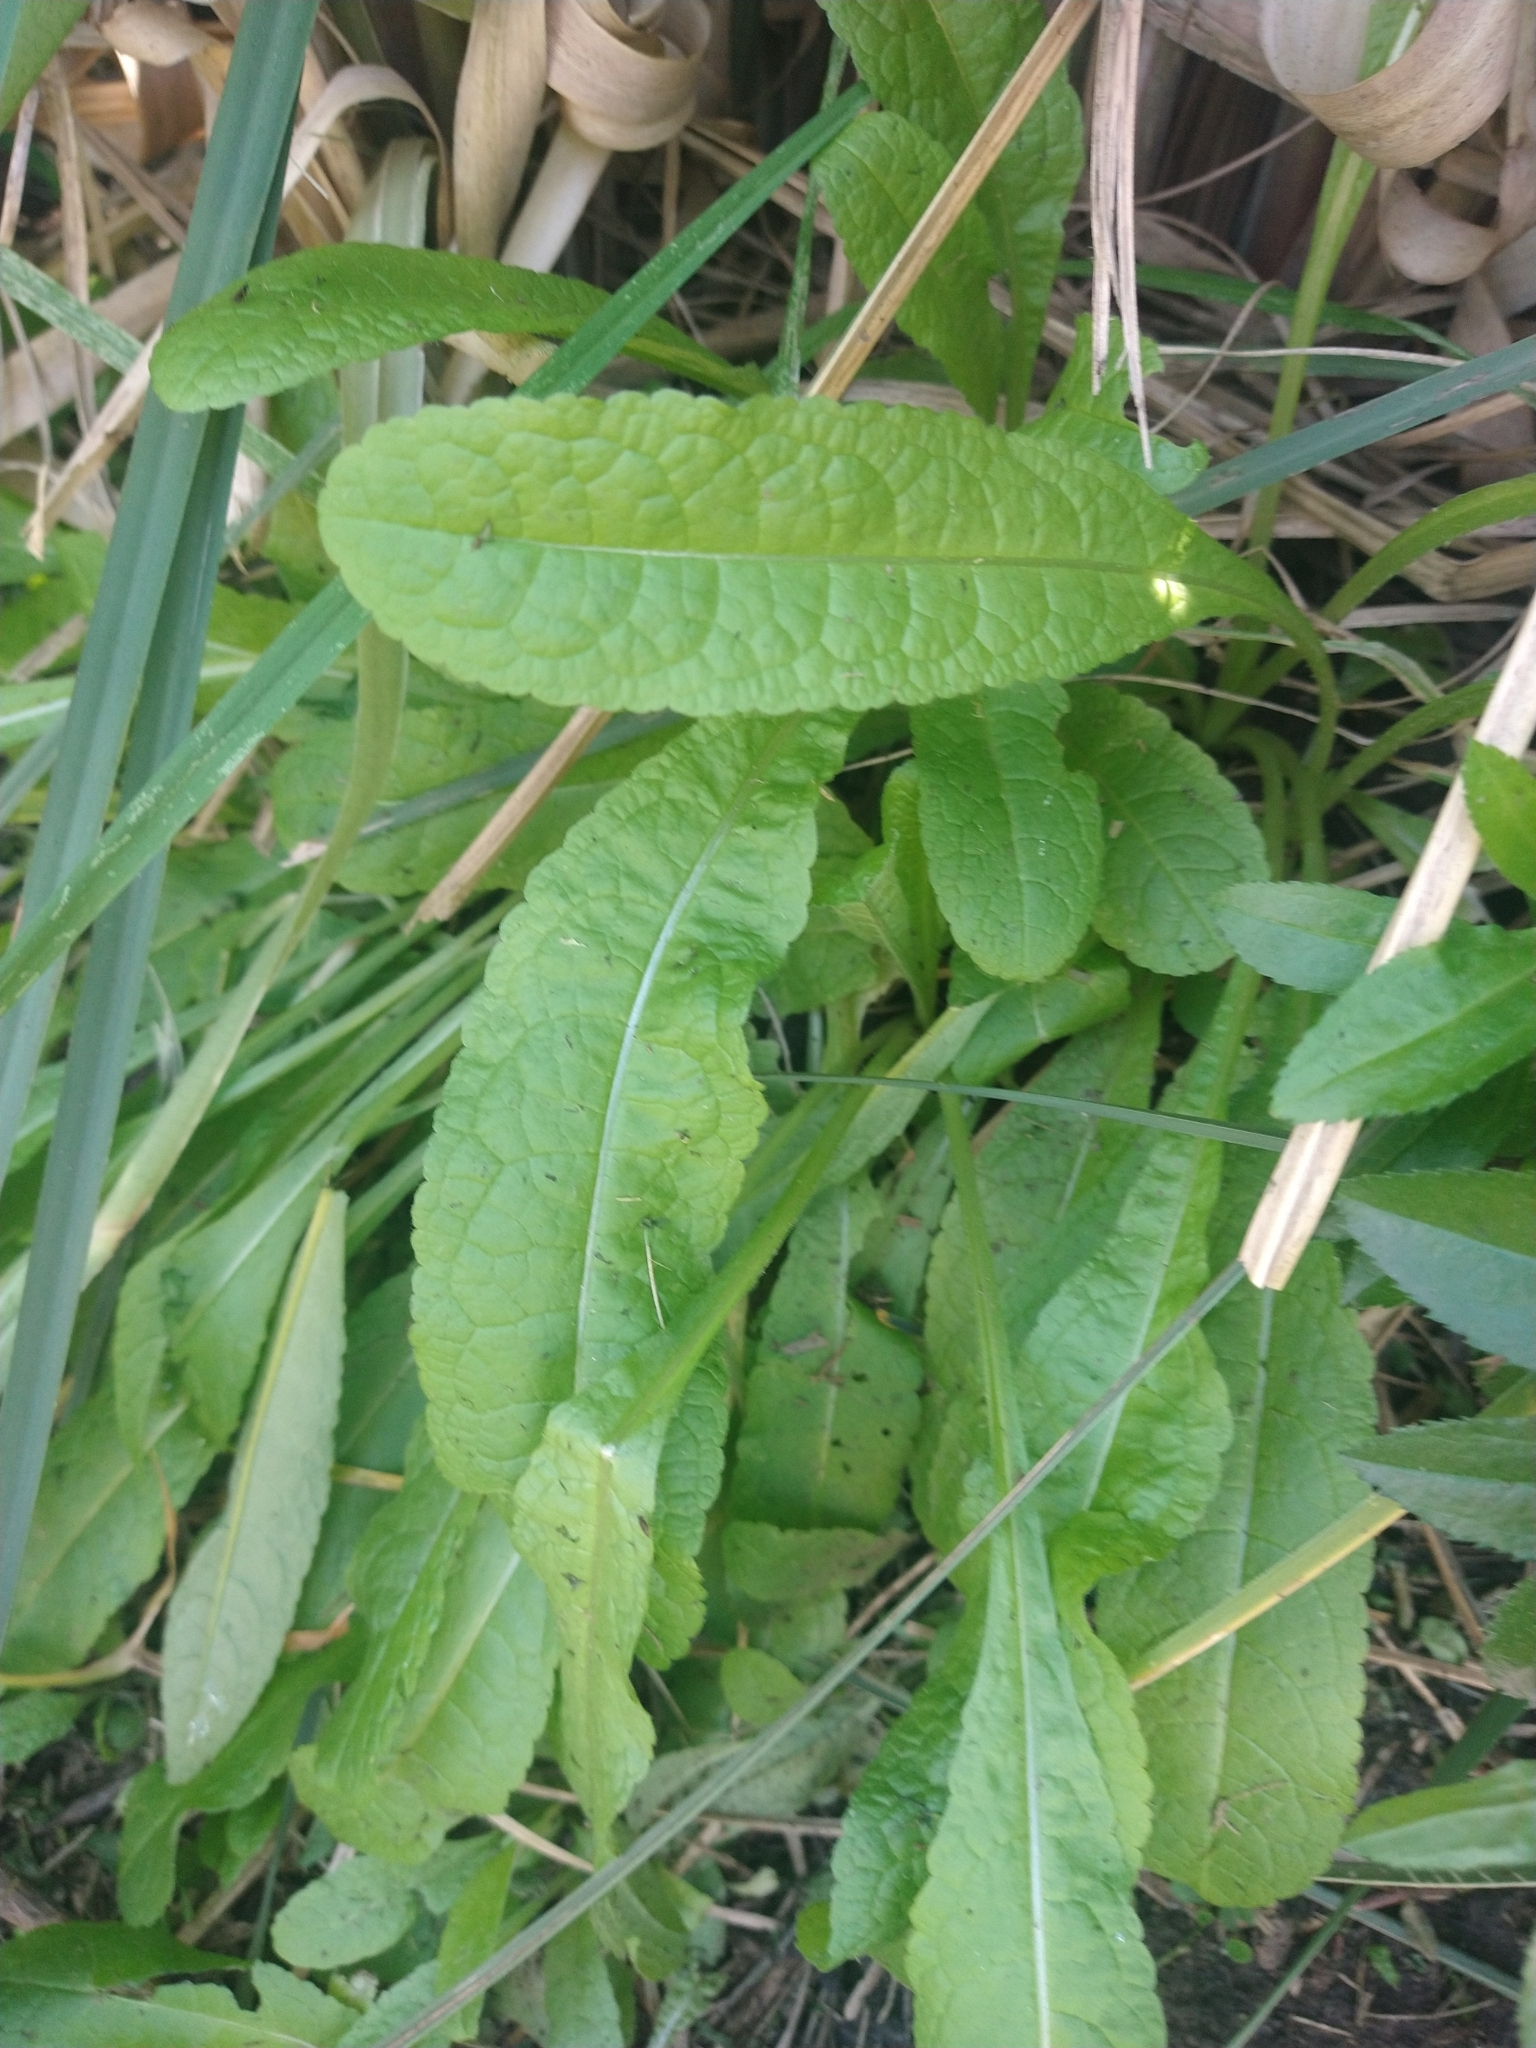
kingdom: Plantae
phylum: Tracheophyta
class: Magnoliopsida
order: Dipsacales
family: Caprifoliaceae
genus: Dipsacus
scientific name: Dipsacus fullonum
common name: Teasel
